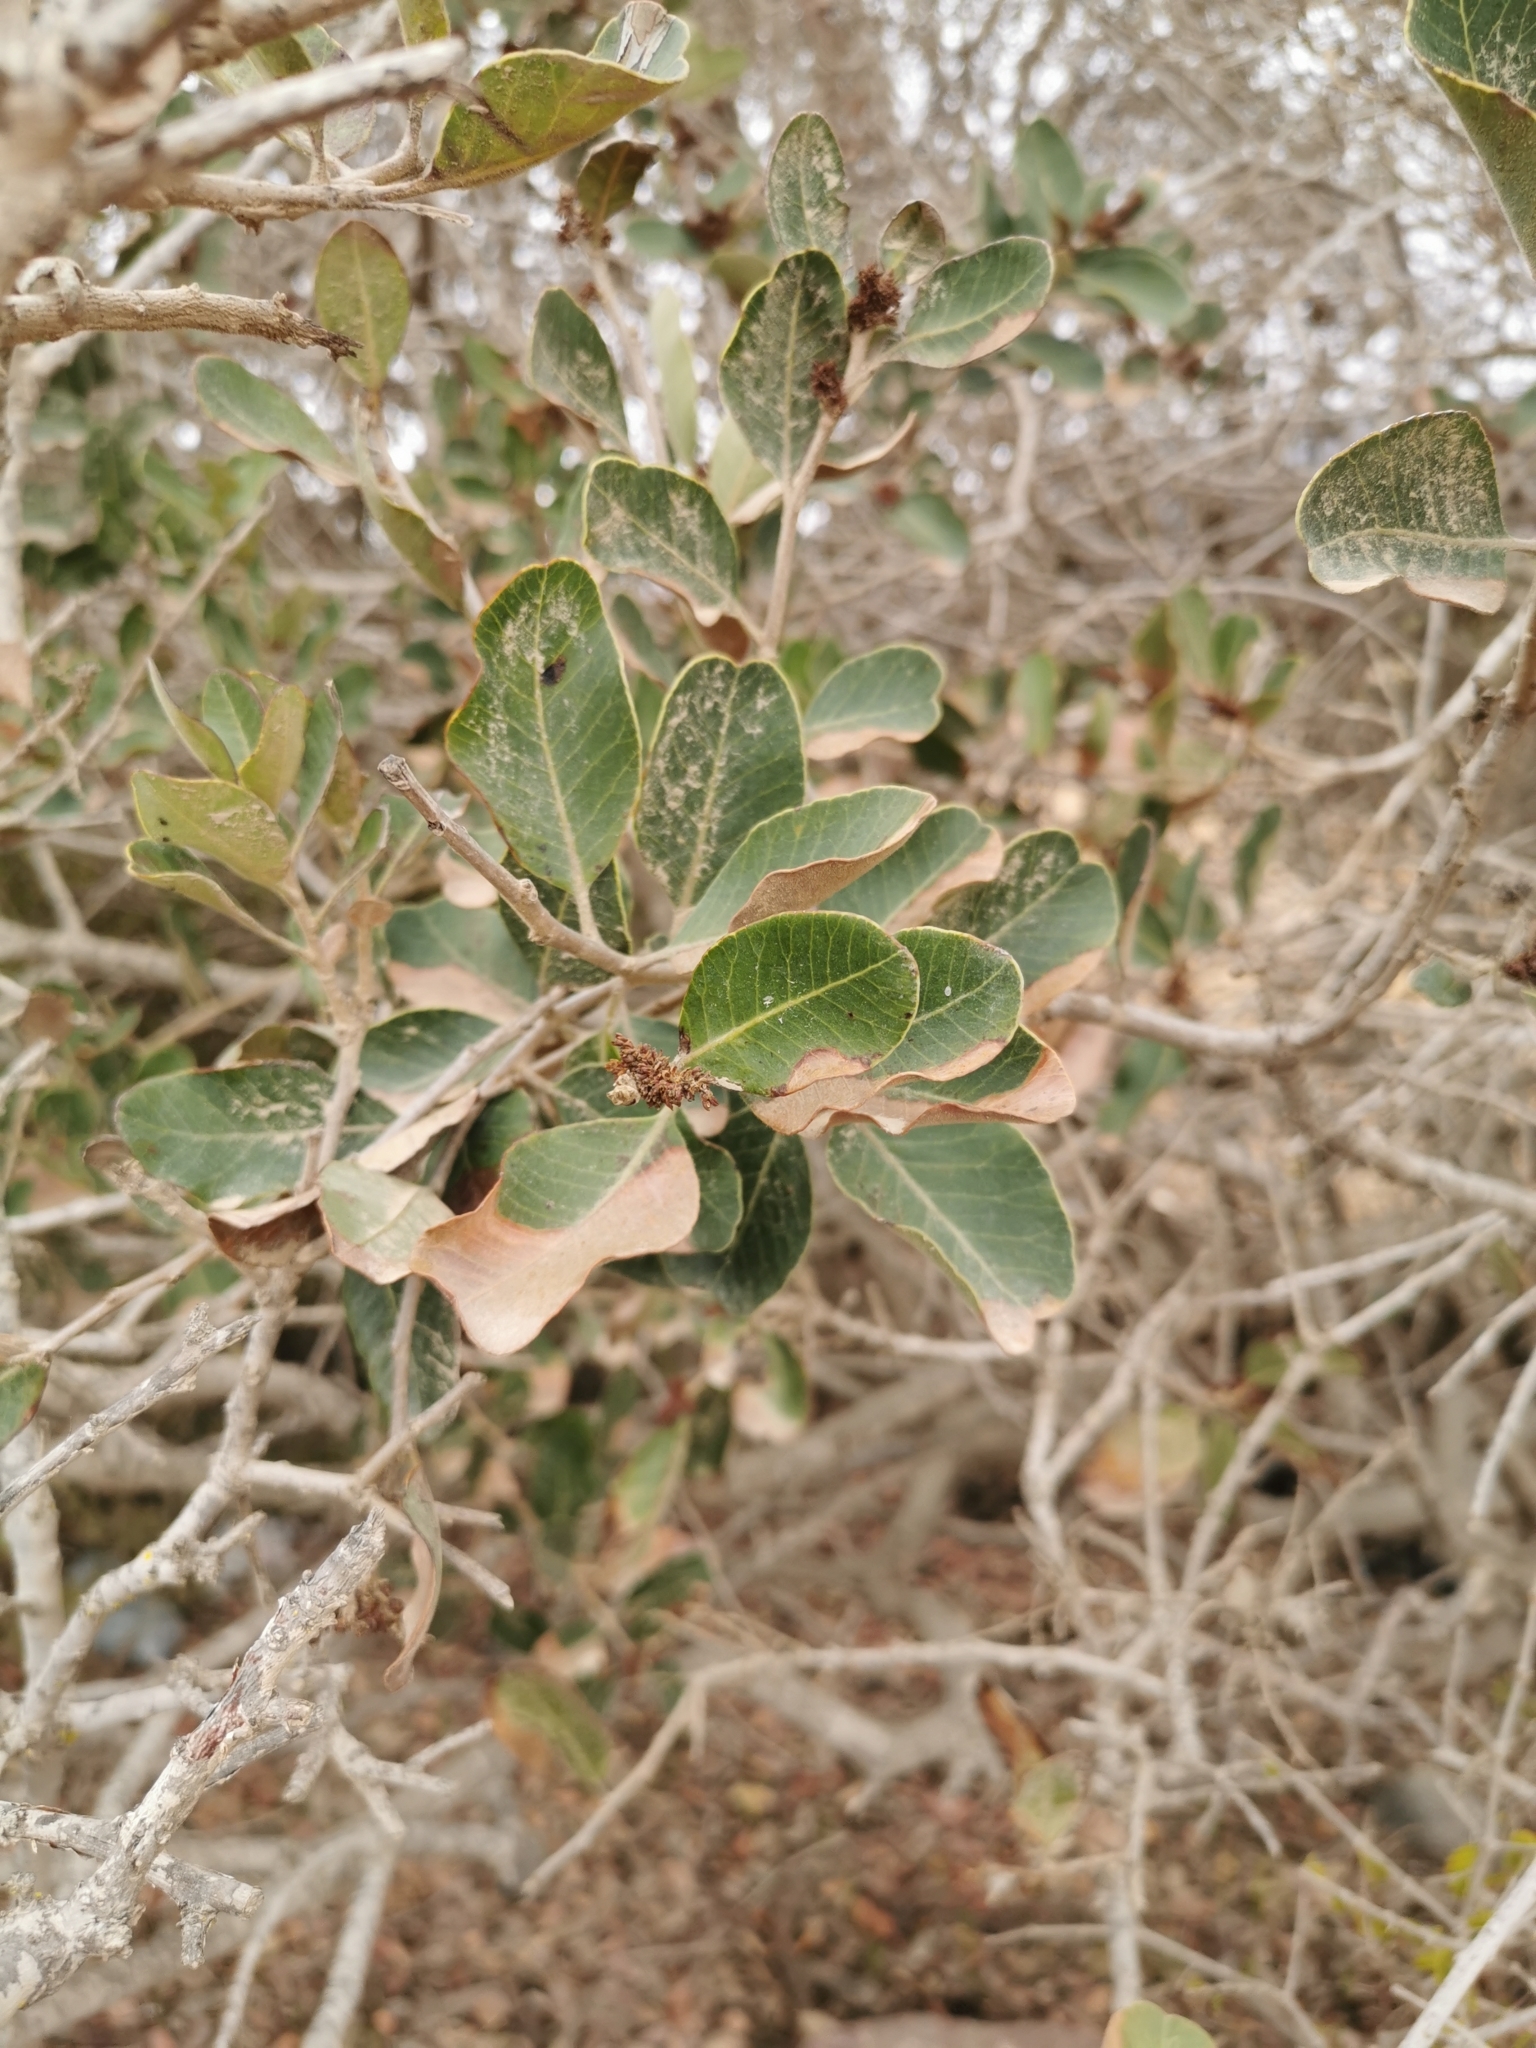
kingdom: Plantae
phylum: Tracheophyta
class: Magnoliopsida
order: Sapindales
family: Anacardiaceae
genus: Lithraea
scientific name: Lithraea caustica
